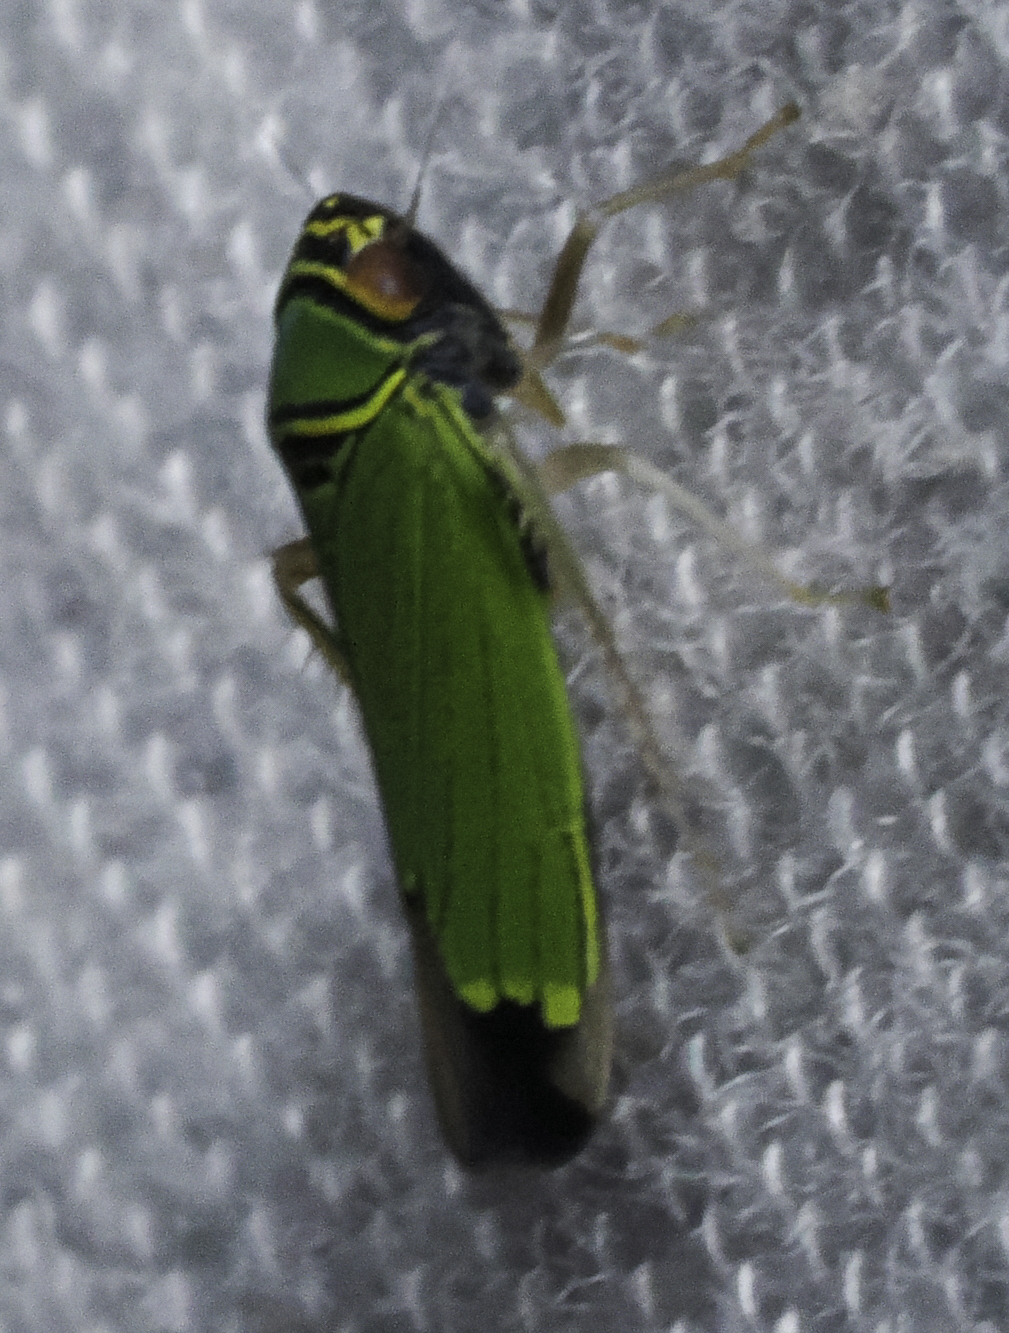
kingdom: Animalia
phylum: Arthropoda
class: Insecta
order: Hemiptera
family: Cicadellidae
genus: Tylozygus
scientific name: Tylozygus geometricus
